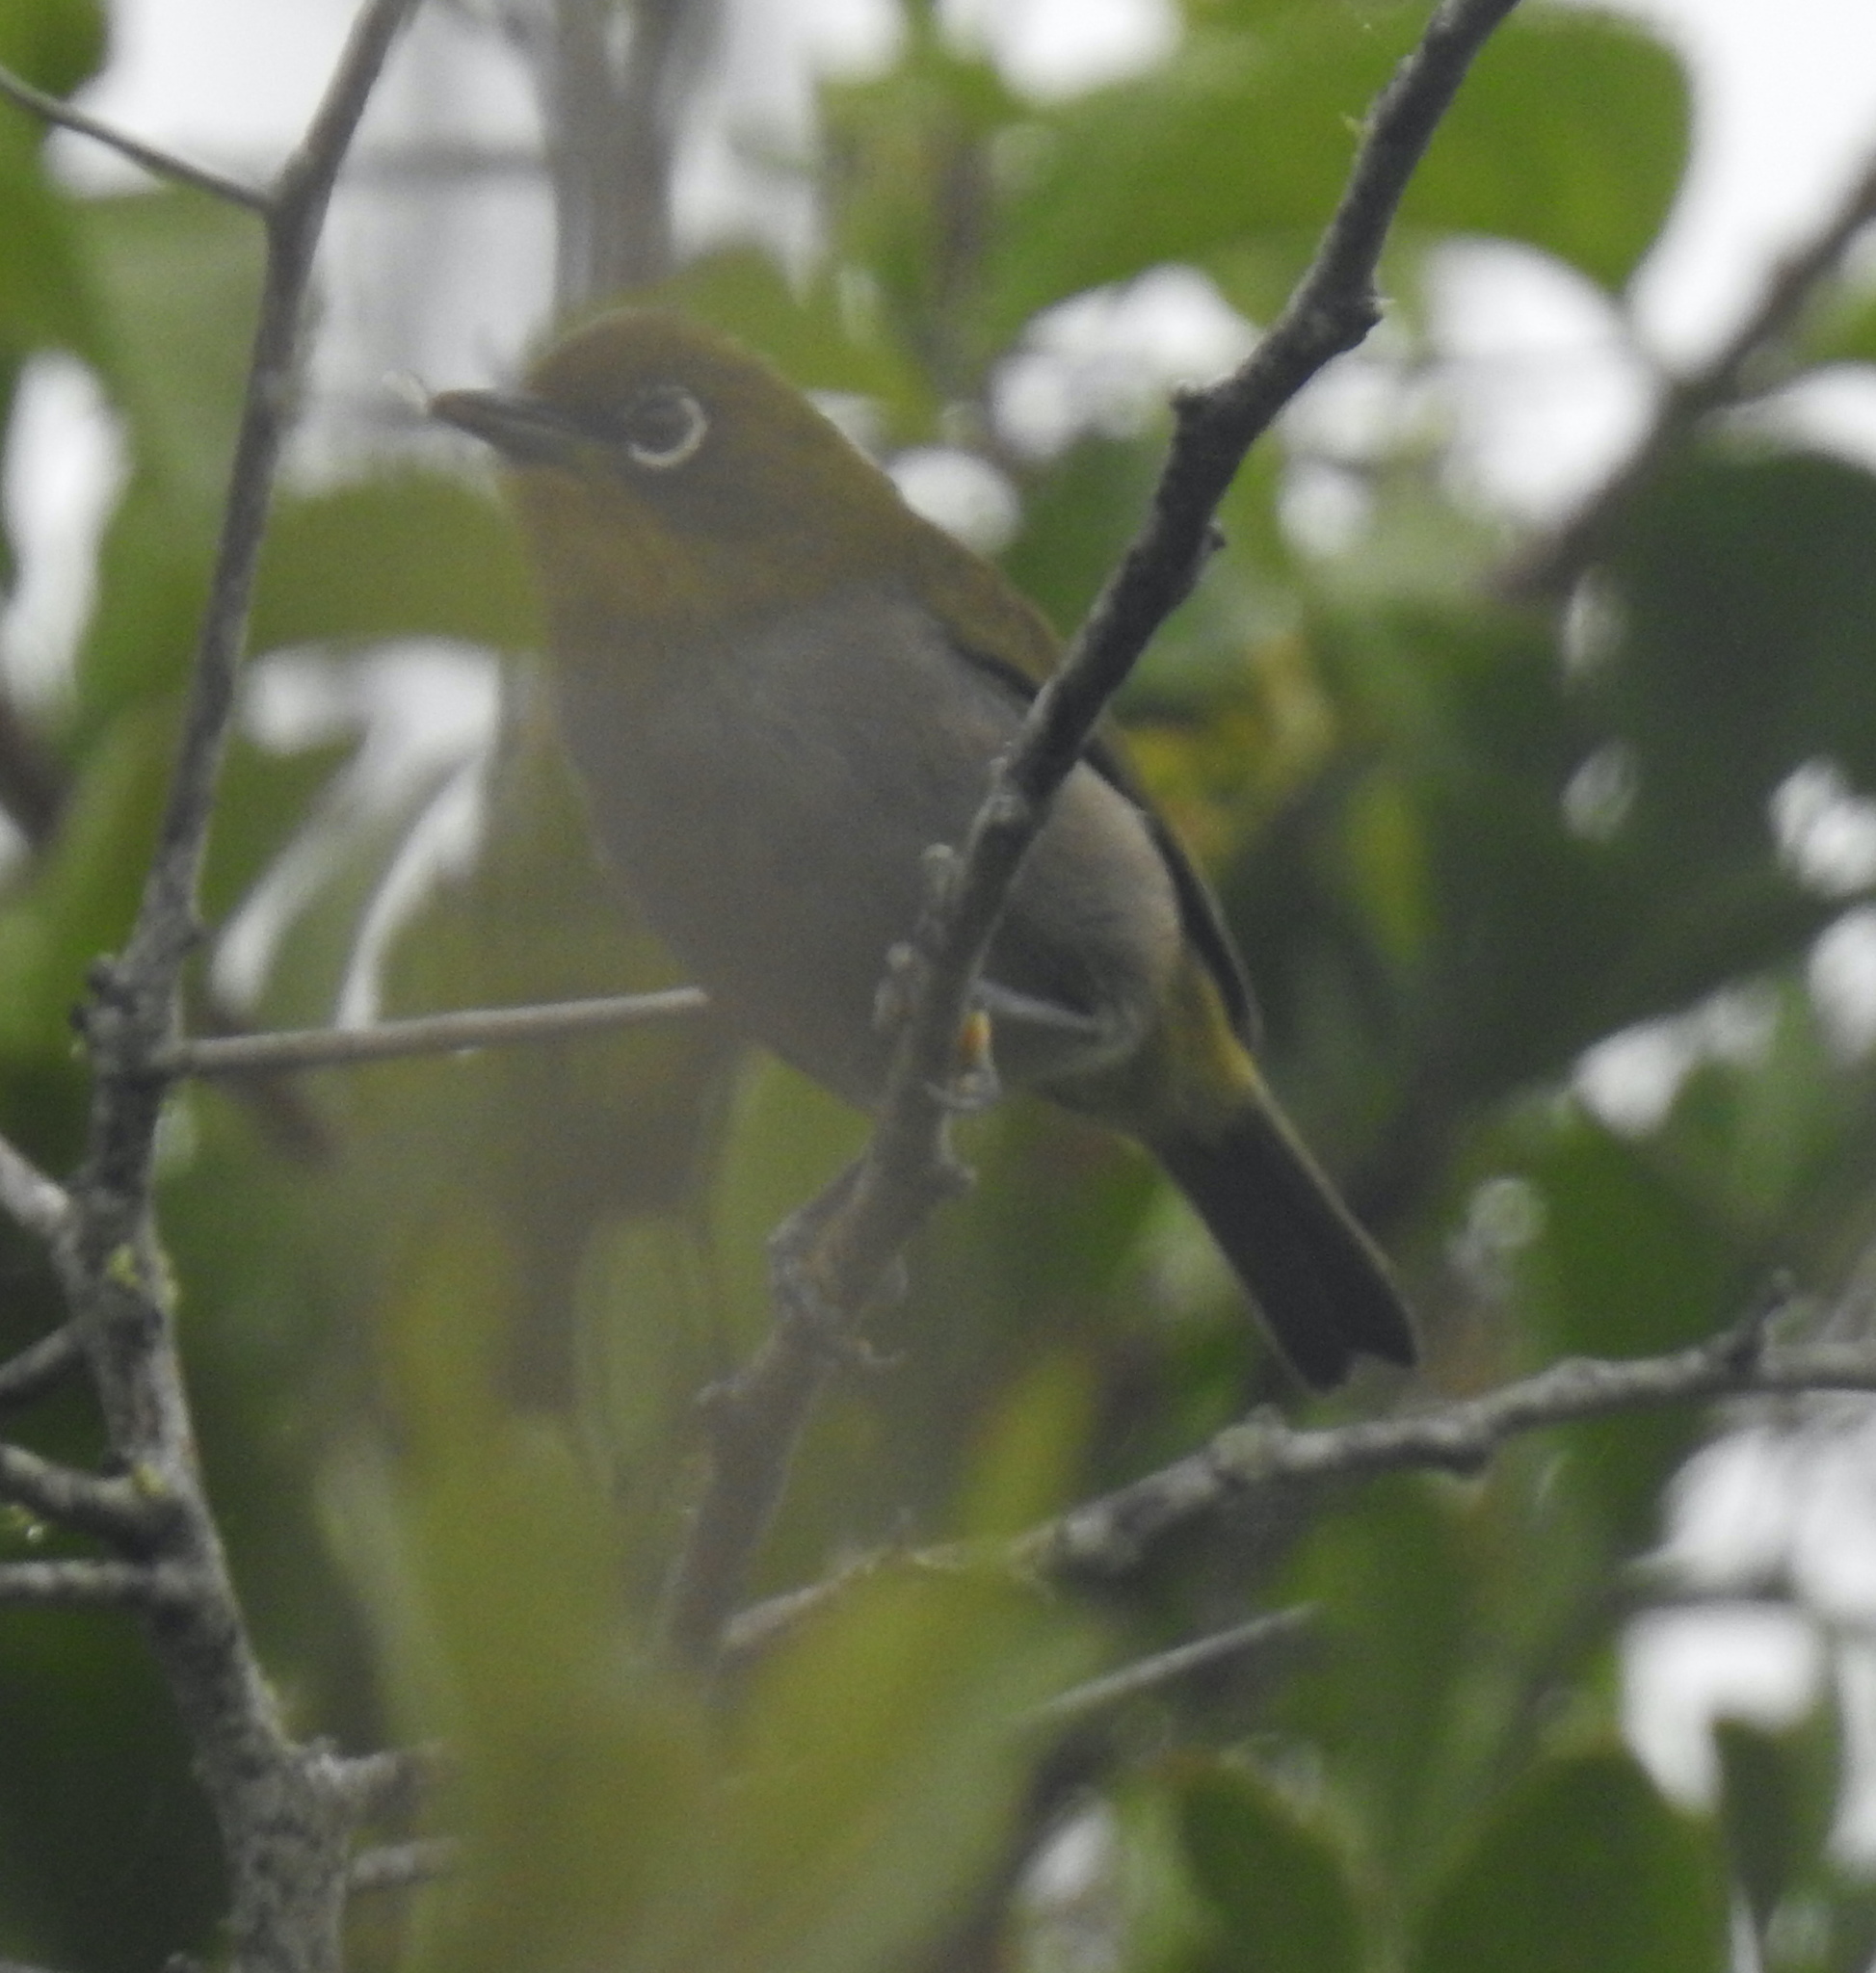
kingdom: Animalia
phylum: Chordata
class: Aves
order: Passeriformes
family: Zosteropidae
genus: Zosterops
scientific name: Zosterops virens
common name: Cape white-eye
